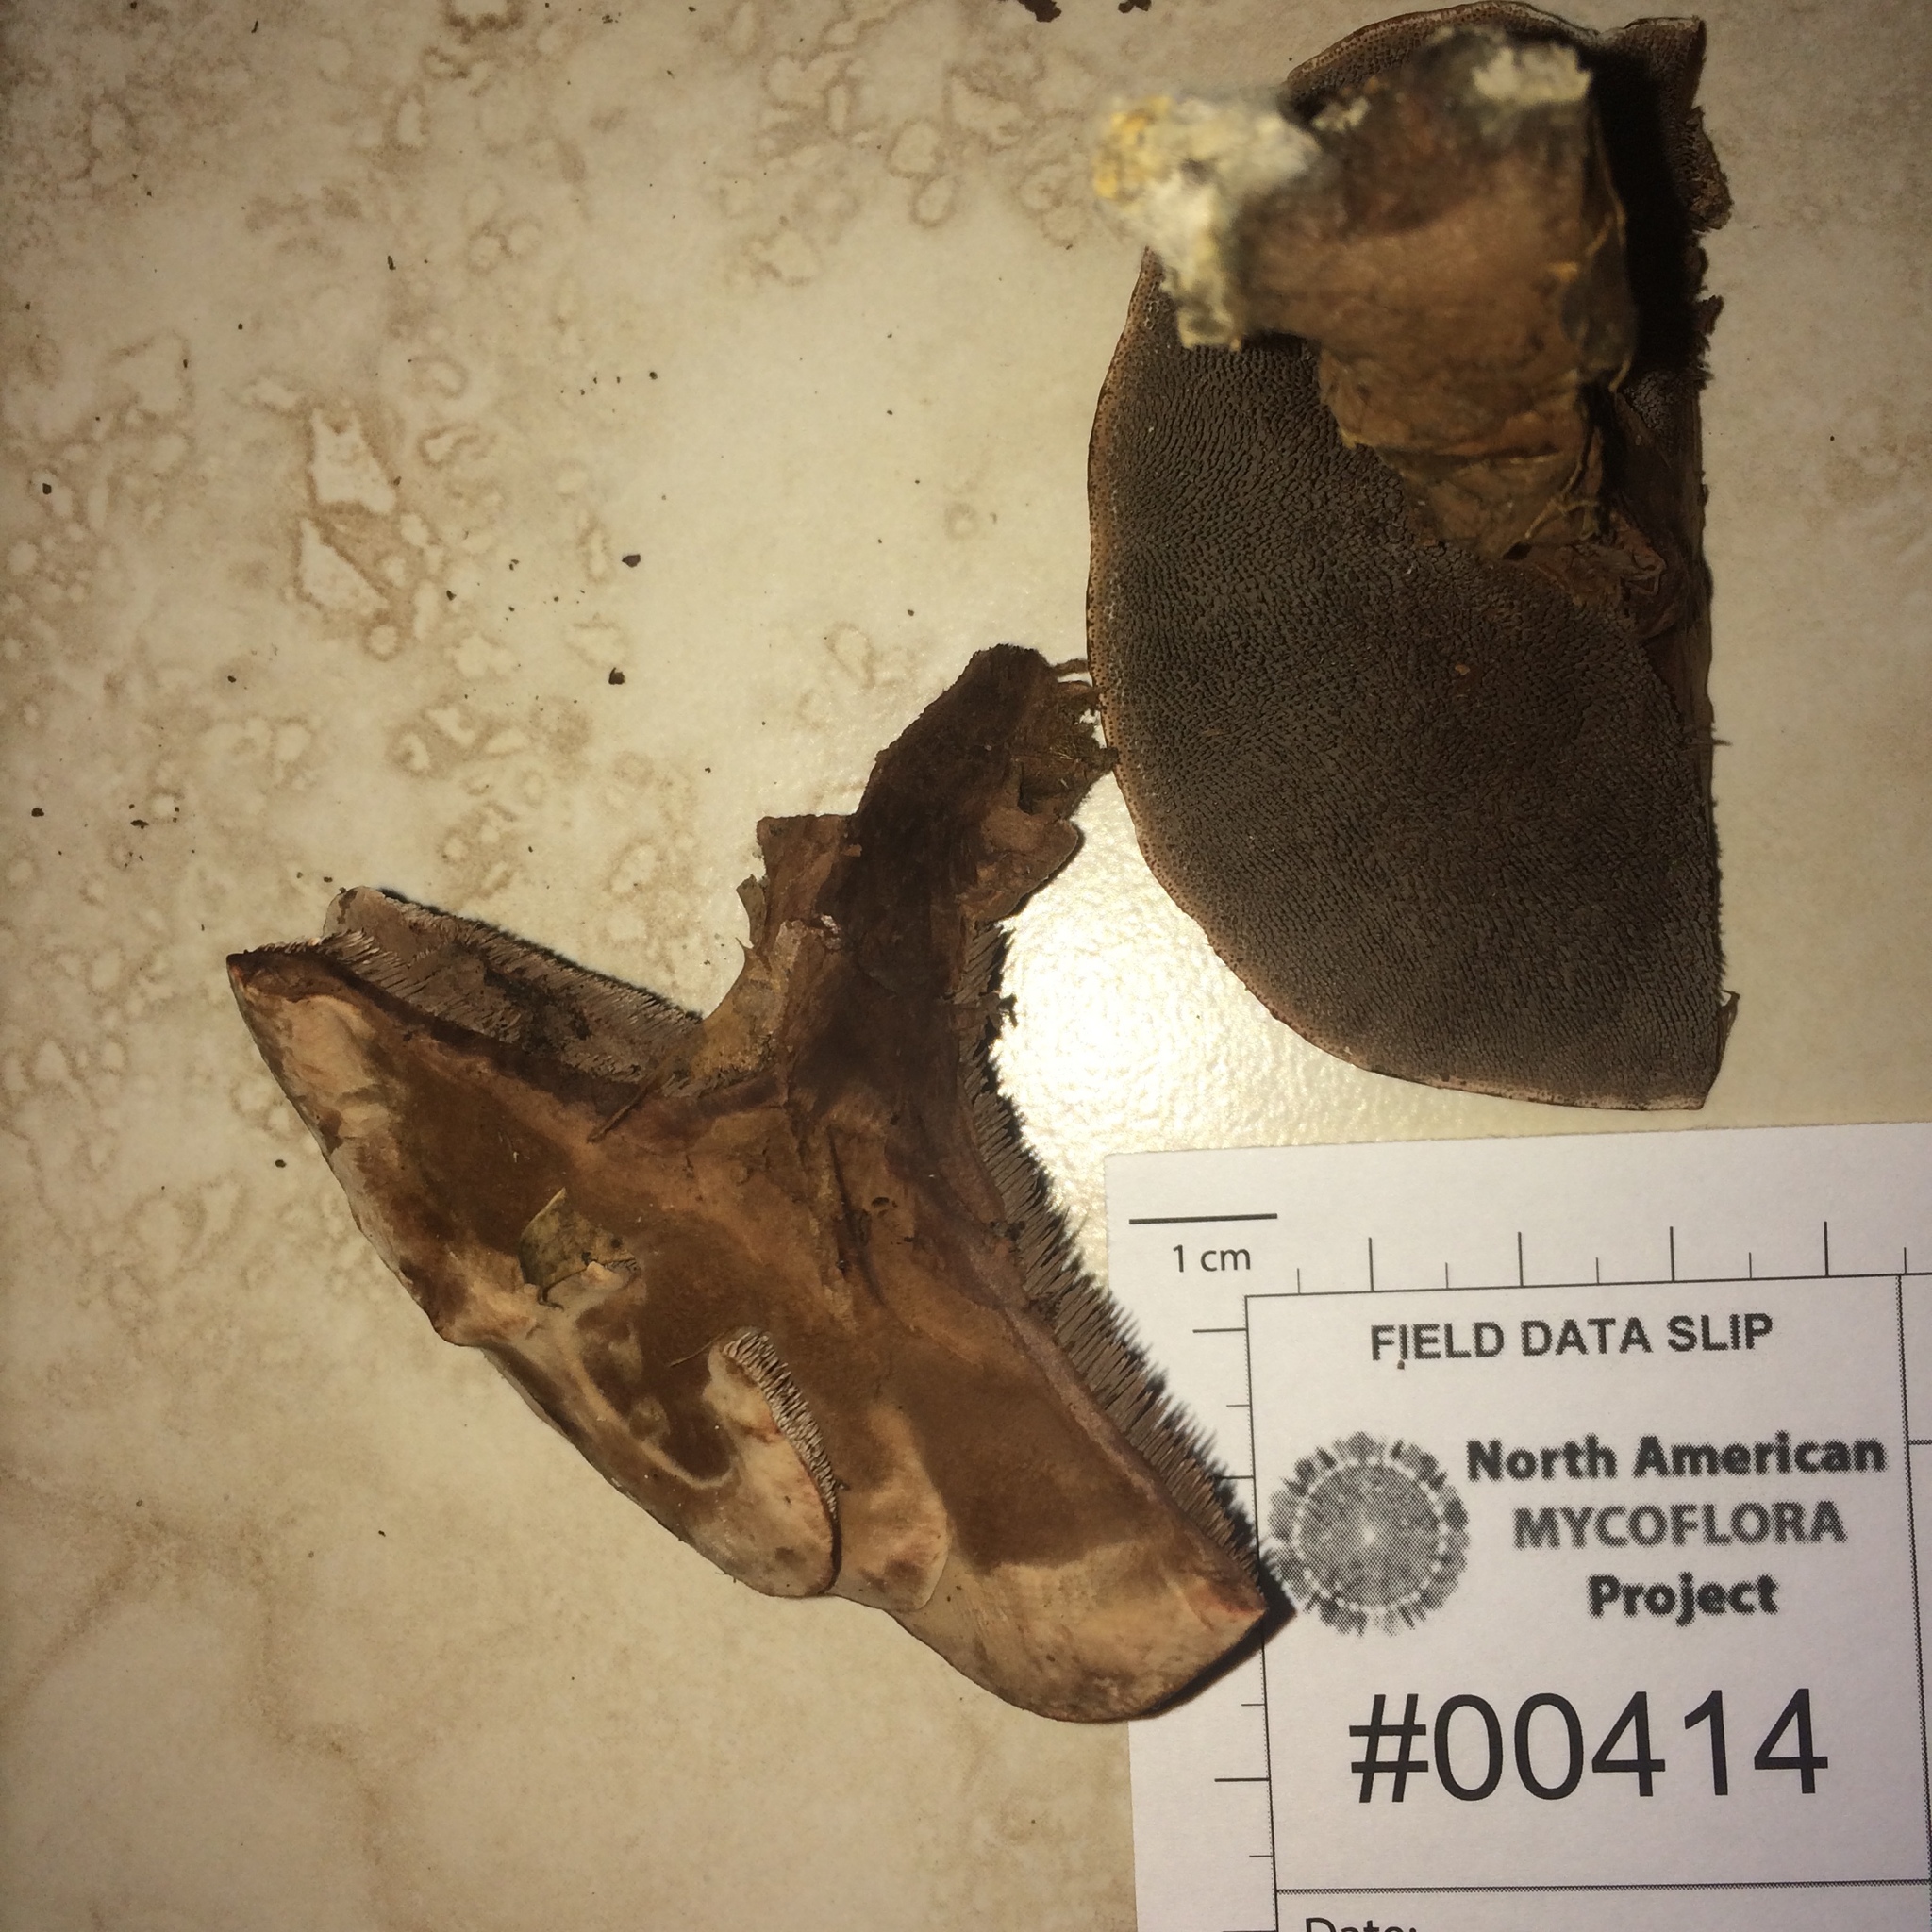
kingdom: Fungi
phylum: Basidiomycota
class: Agaricomycetes
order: Thelephorales
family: Bankeraceae
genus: Hydnellum
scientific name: Hydnellum spongiosipes
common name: Velvet tooth
